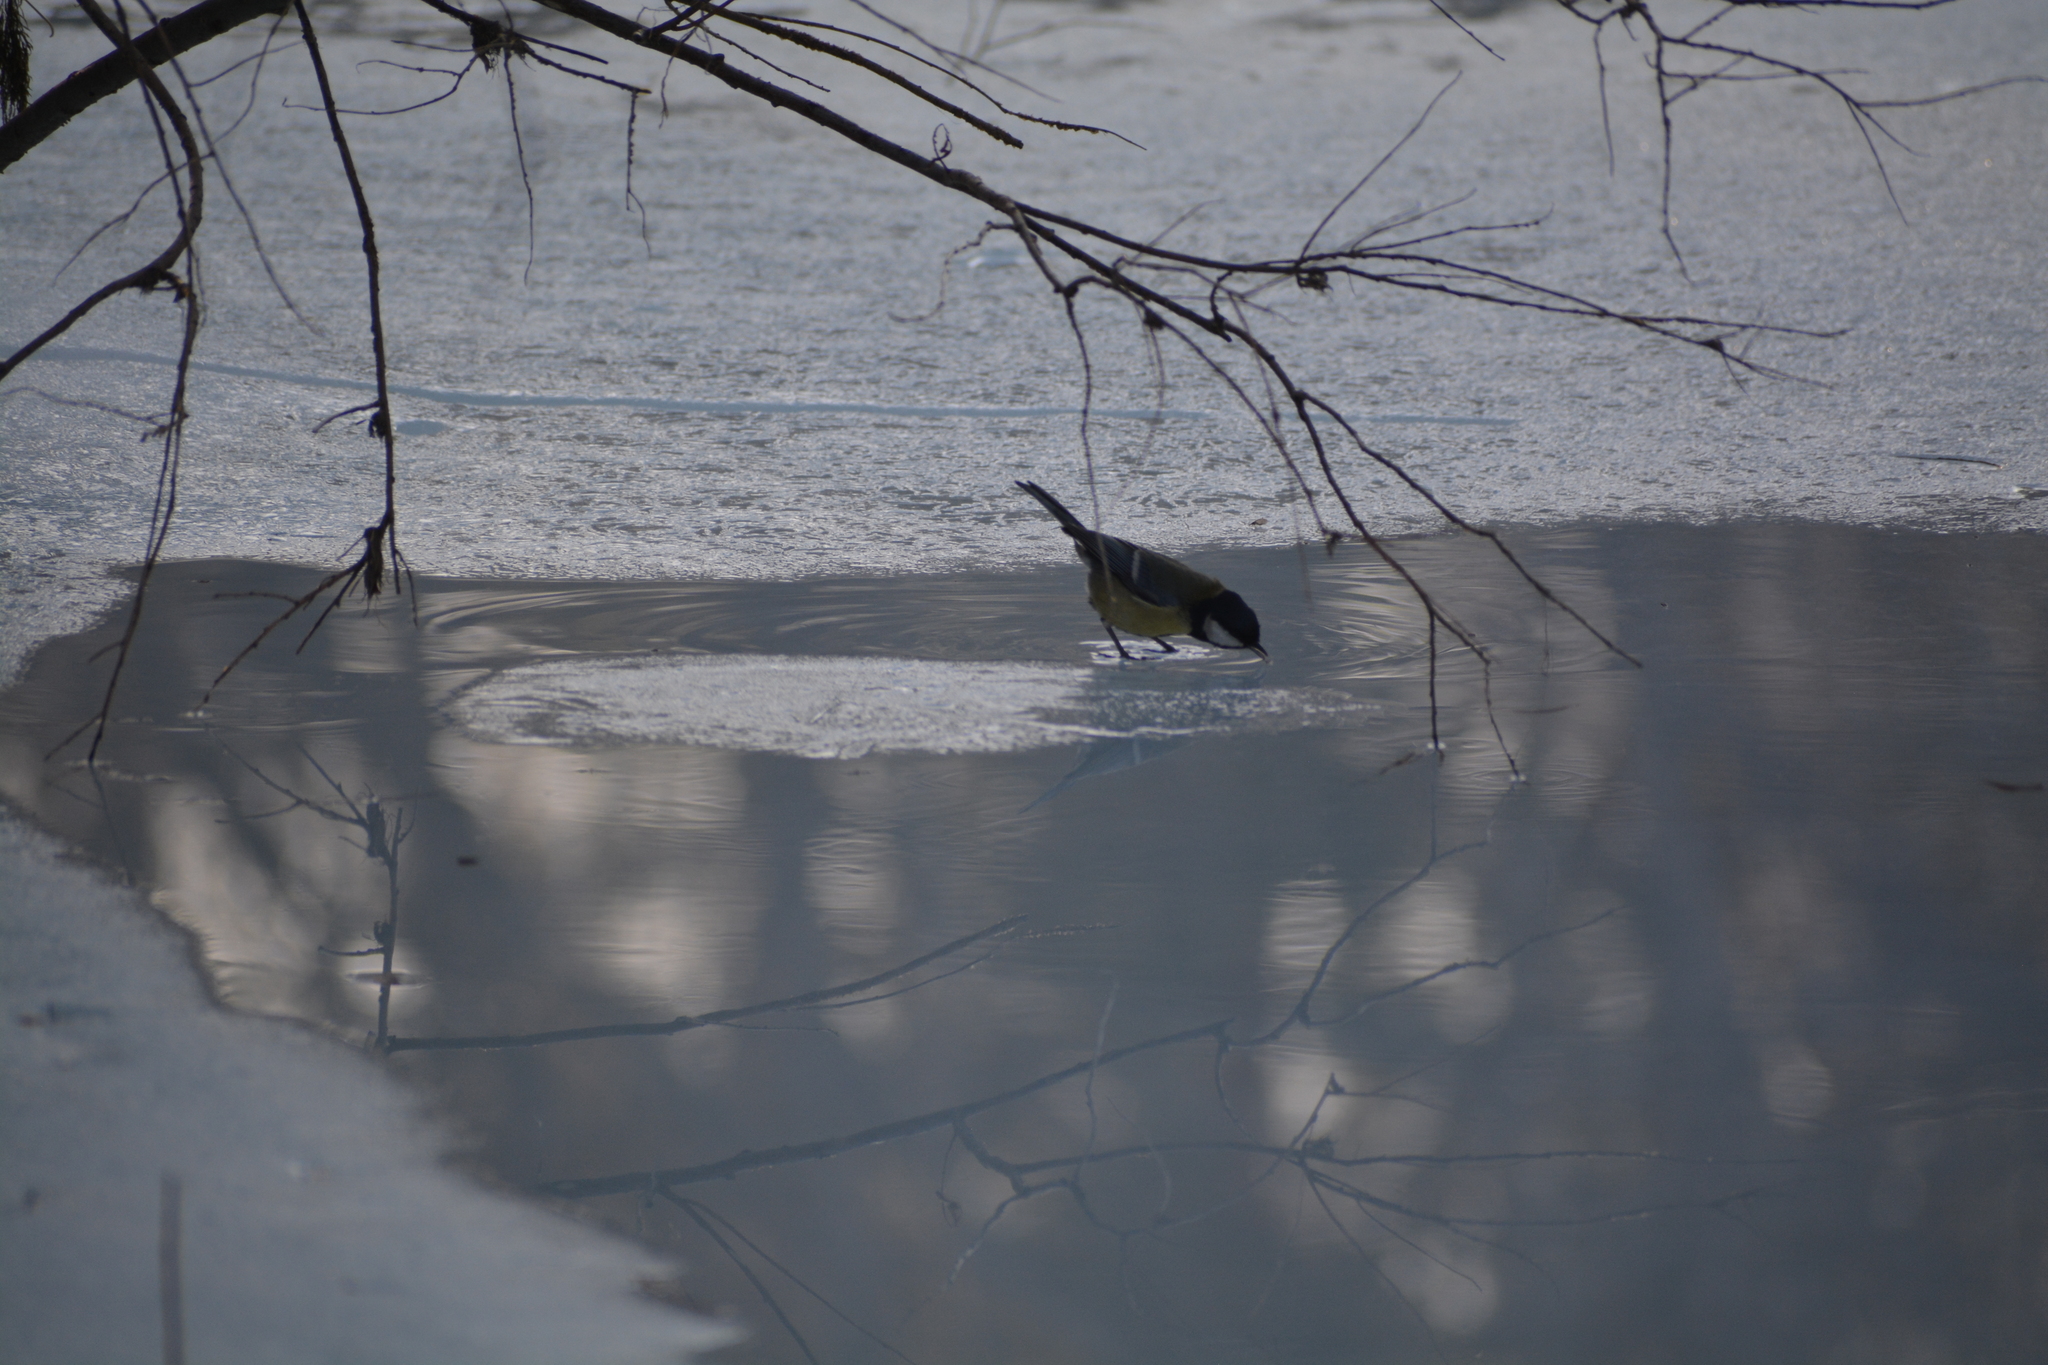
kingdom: Animalia
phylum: Chordata
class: Aves
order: Passeriformes
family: Paridae
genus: Parus
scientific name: Parus major
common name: Great tit
